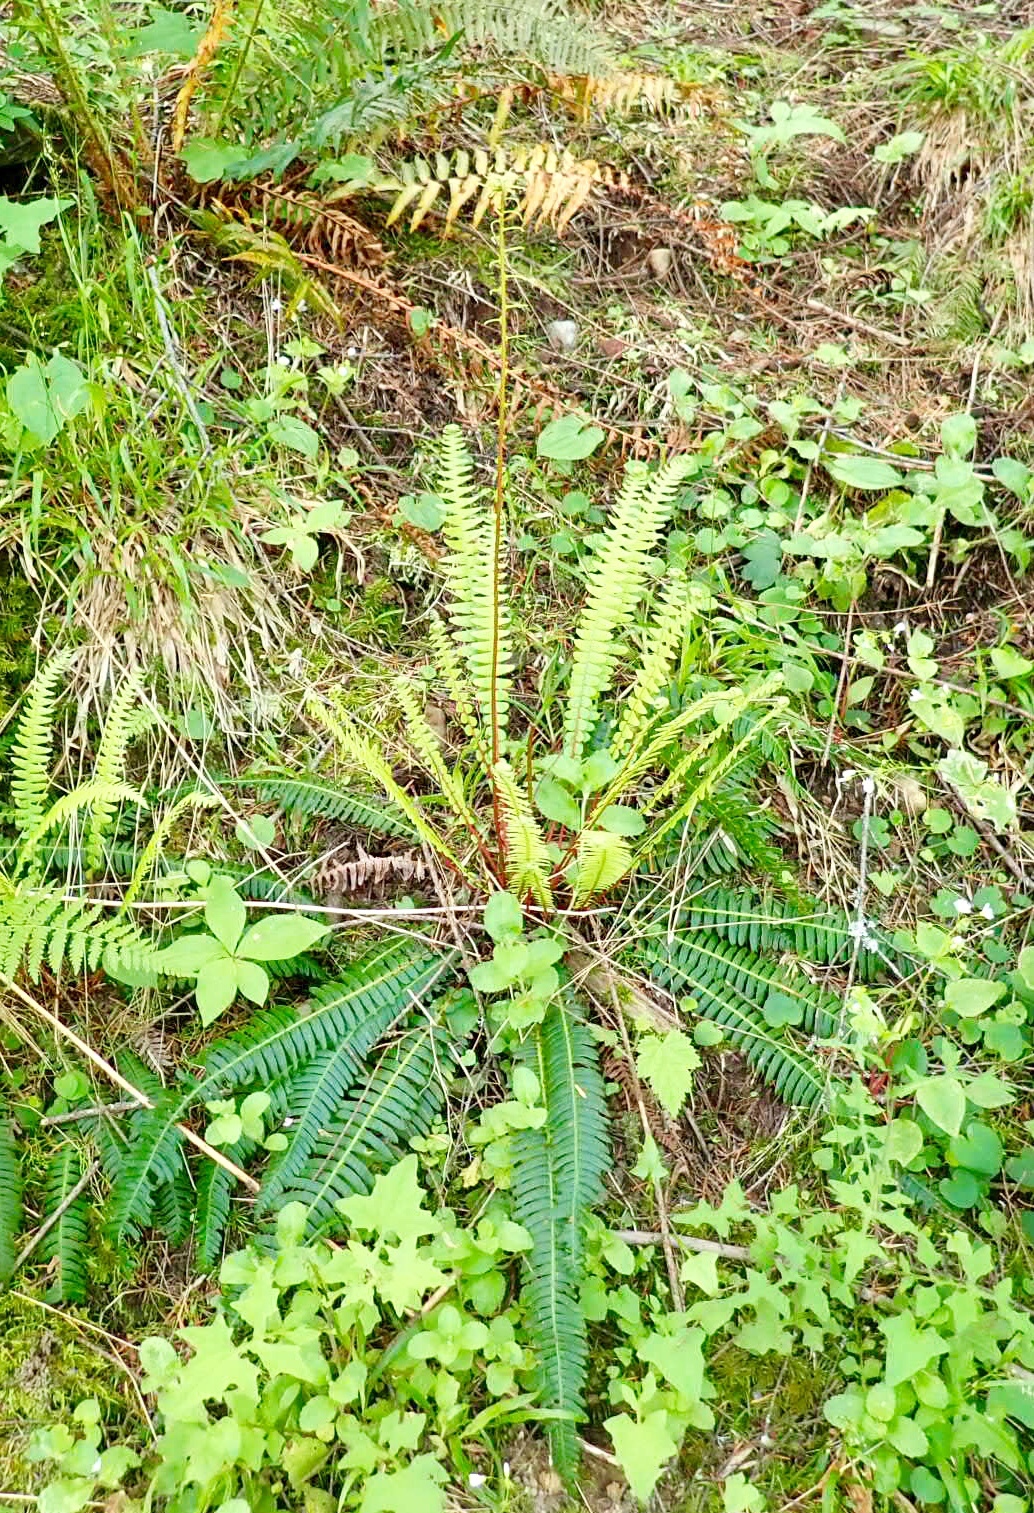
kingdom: Plantae
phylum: Tracheophyta
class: Polypodiopsida
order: Polypodiales
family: Blechnaceae
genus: Struthiopteris
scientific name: Struthiopteris spicant
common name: Deer fern
